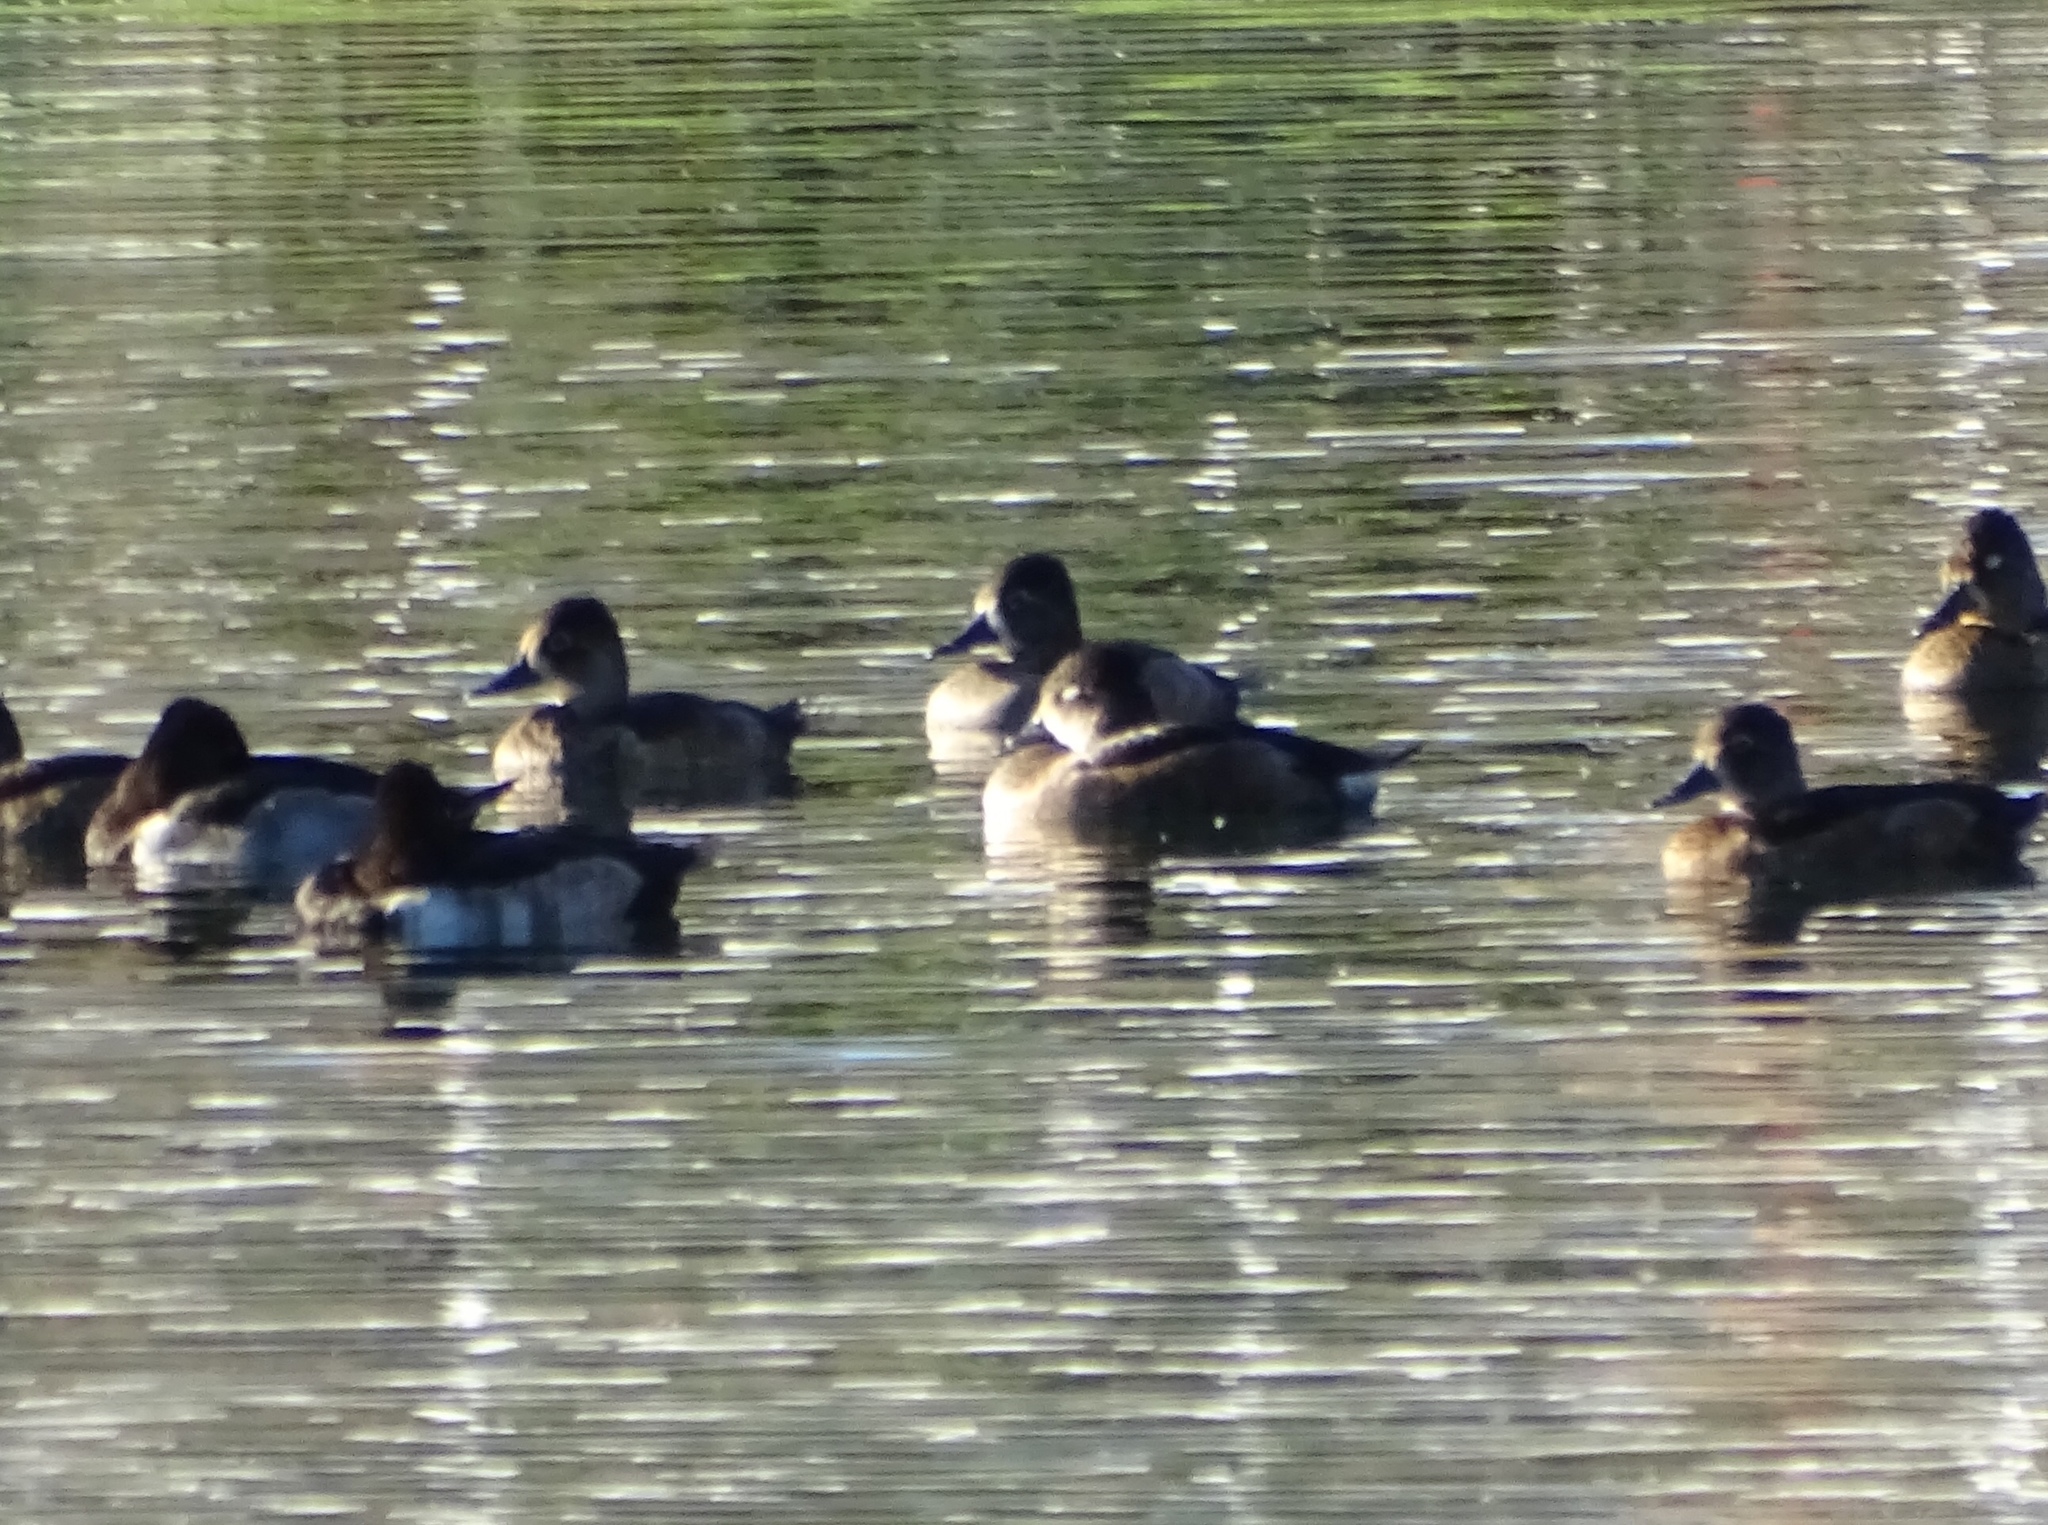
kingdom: Animalia
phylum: Chordata
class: Aves
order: Anseriformes
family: Anatidae
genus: Aythya
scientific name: Aythya collaris
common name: Ring-necked duck
